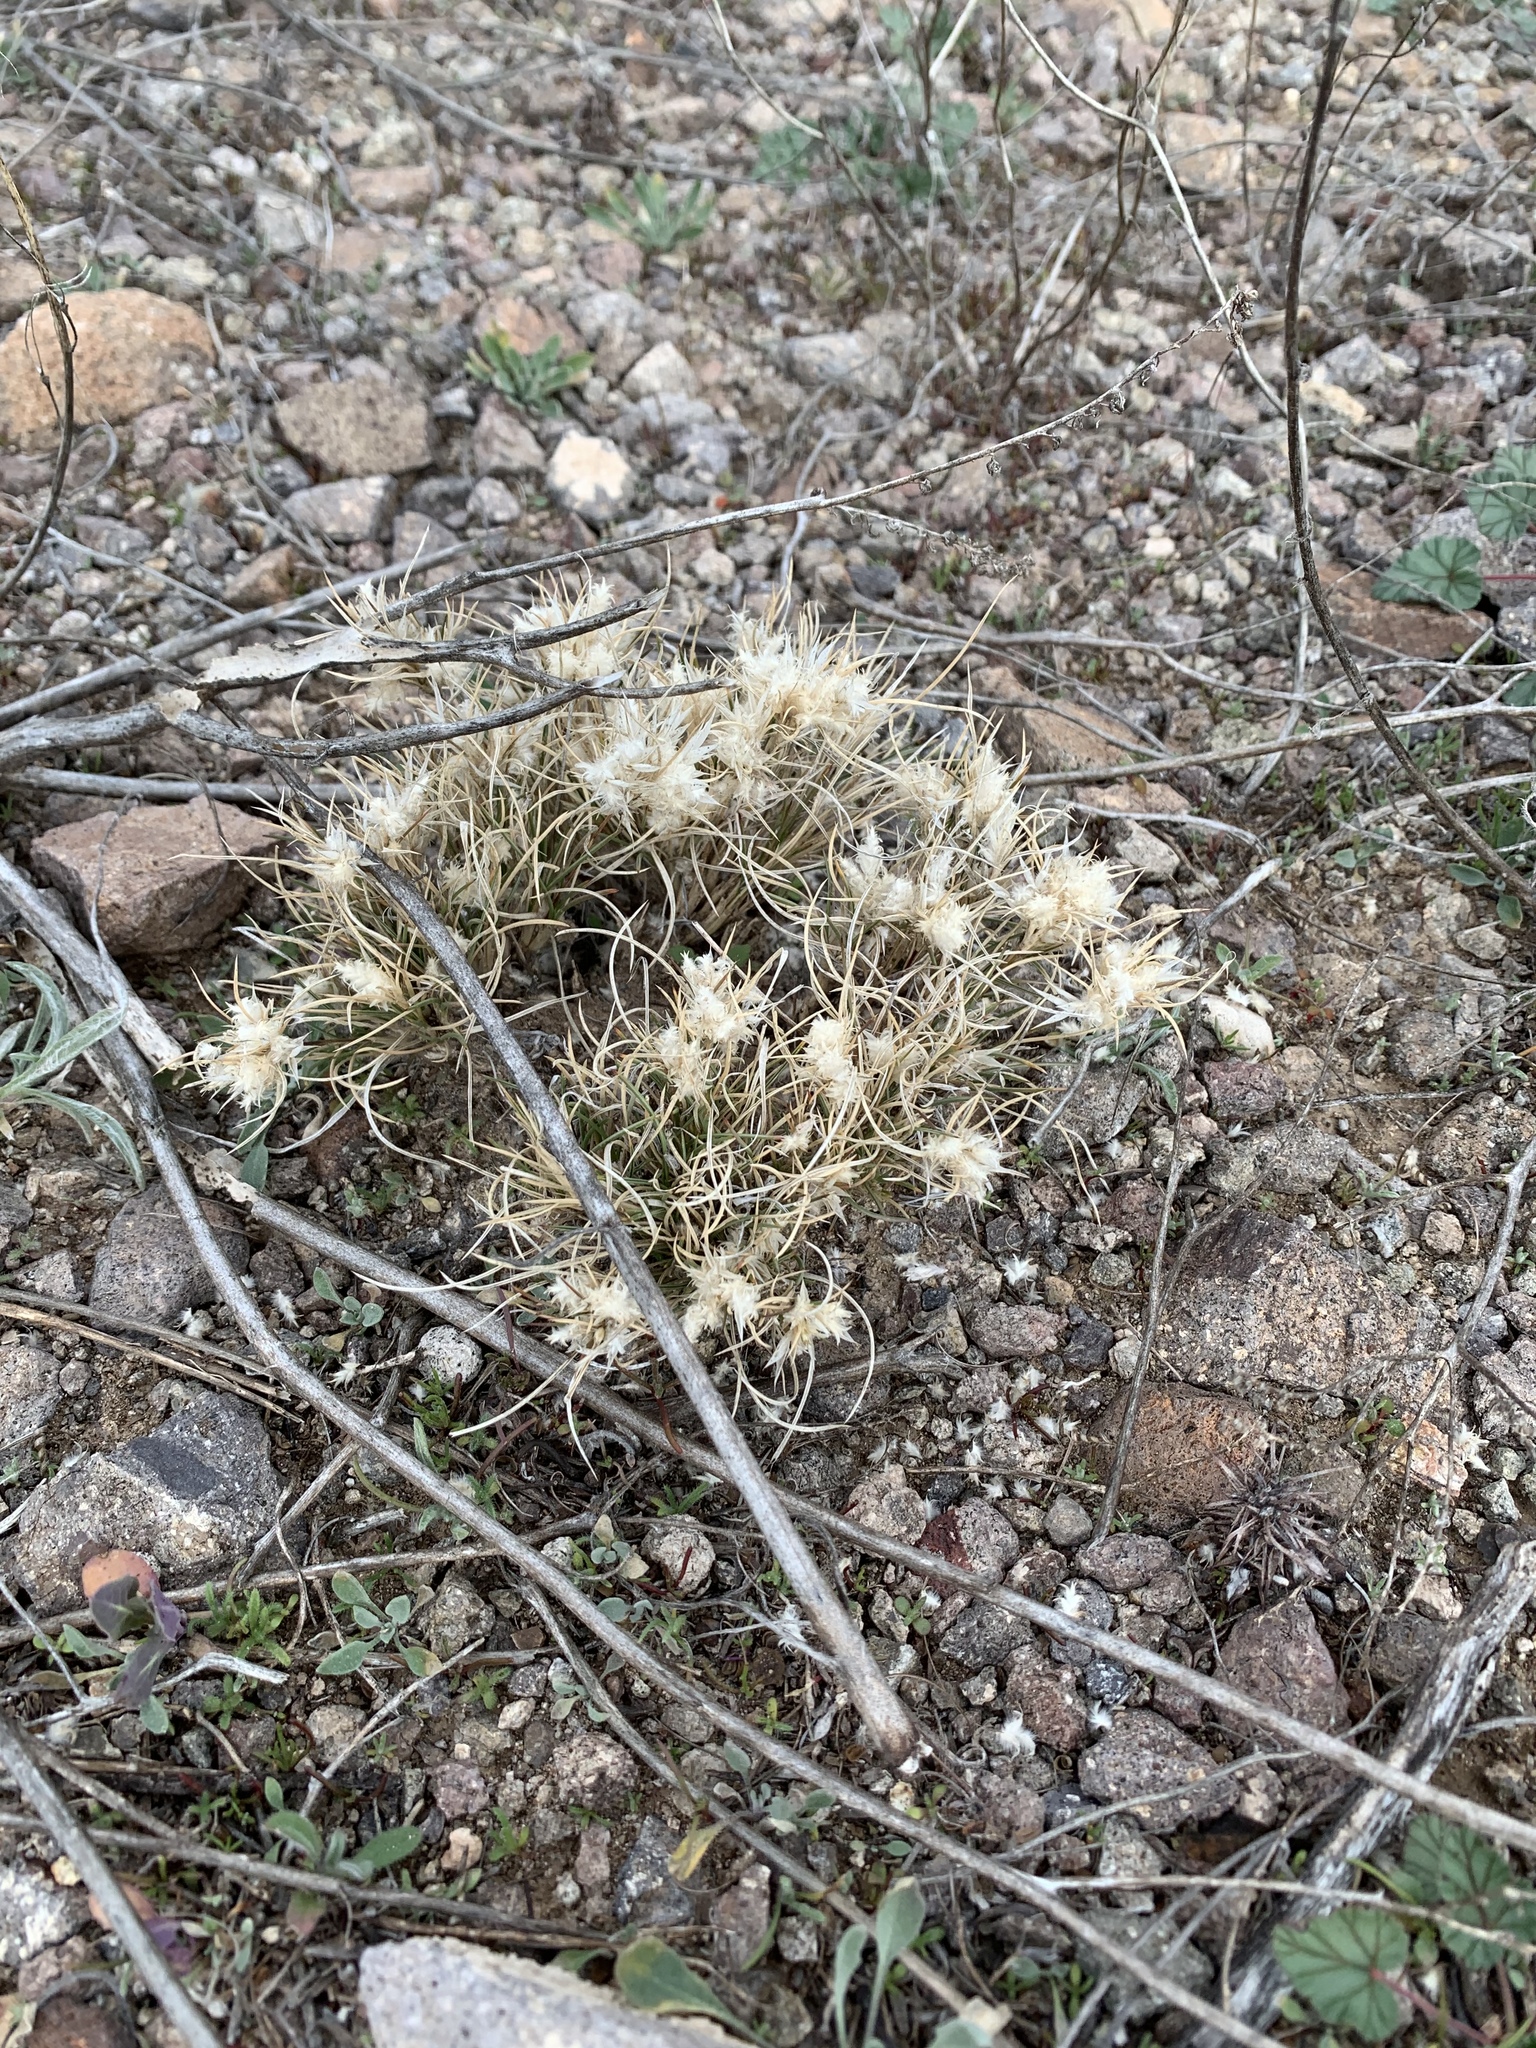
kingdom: Plantae
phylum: Tracheophyta
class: Liliopsida
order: Poales
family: Poaceae
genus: Dasyochloa
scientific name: Dasyochloa pulchella
